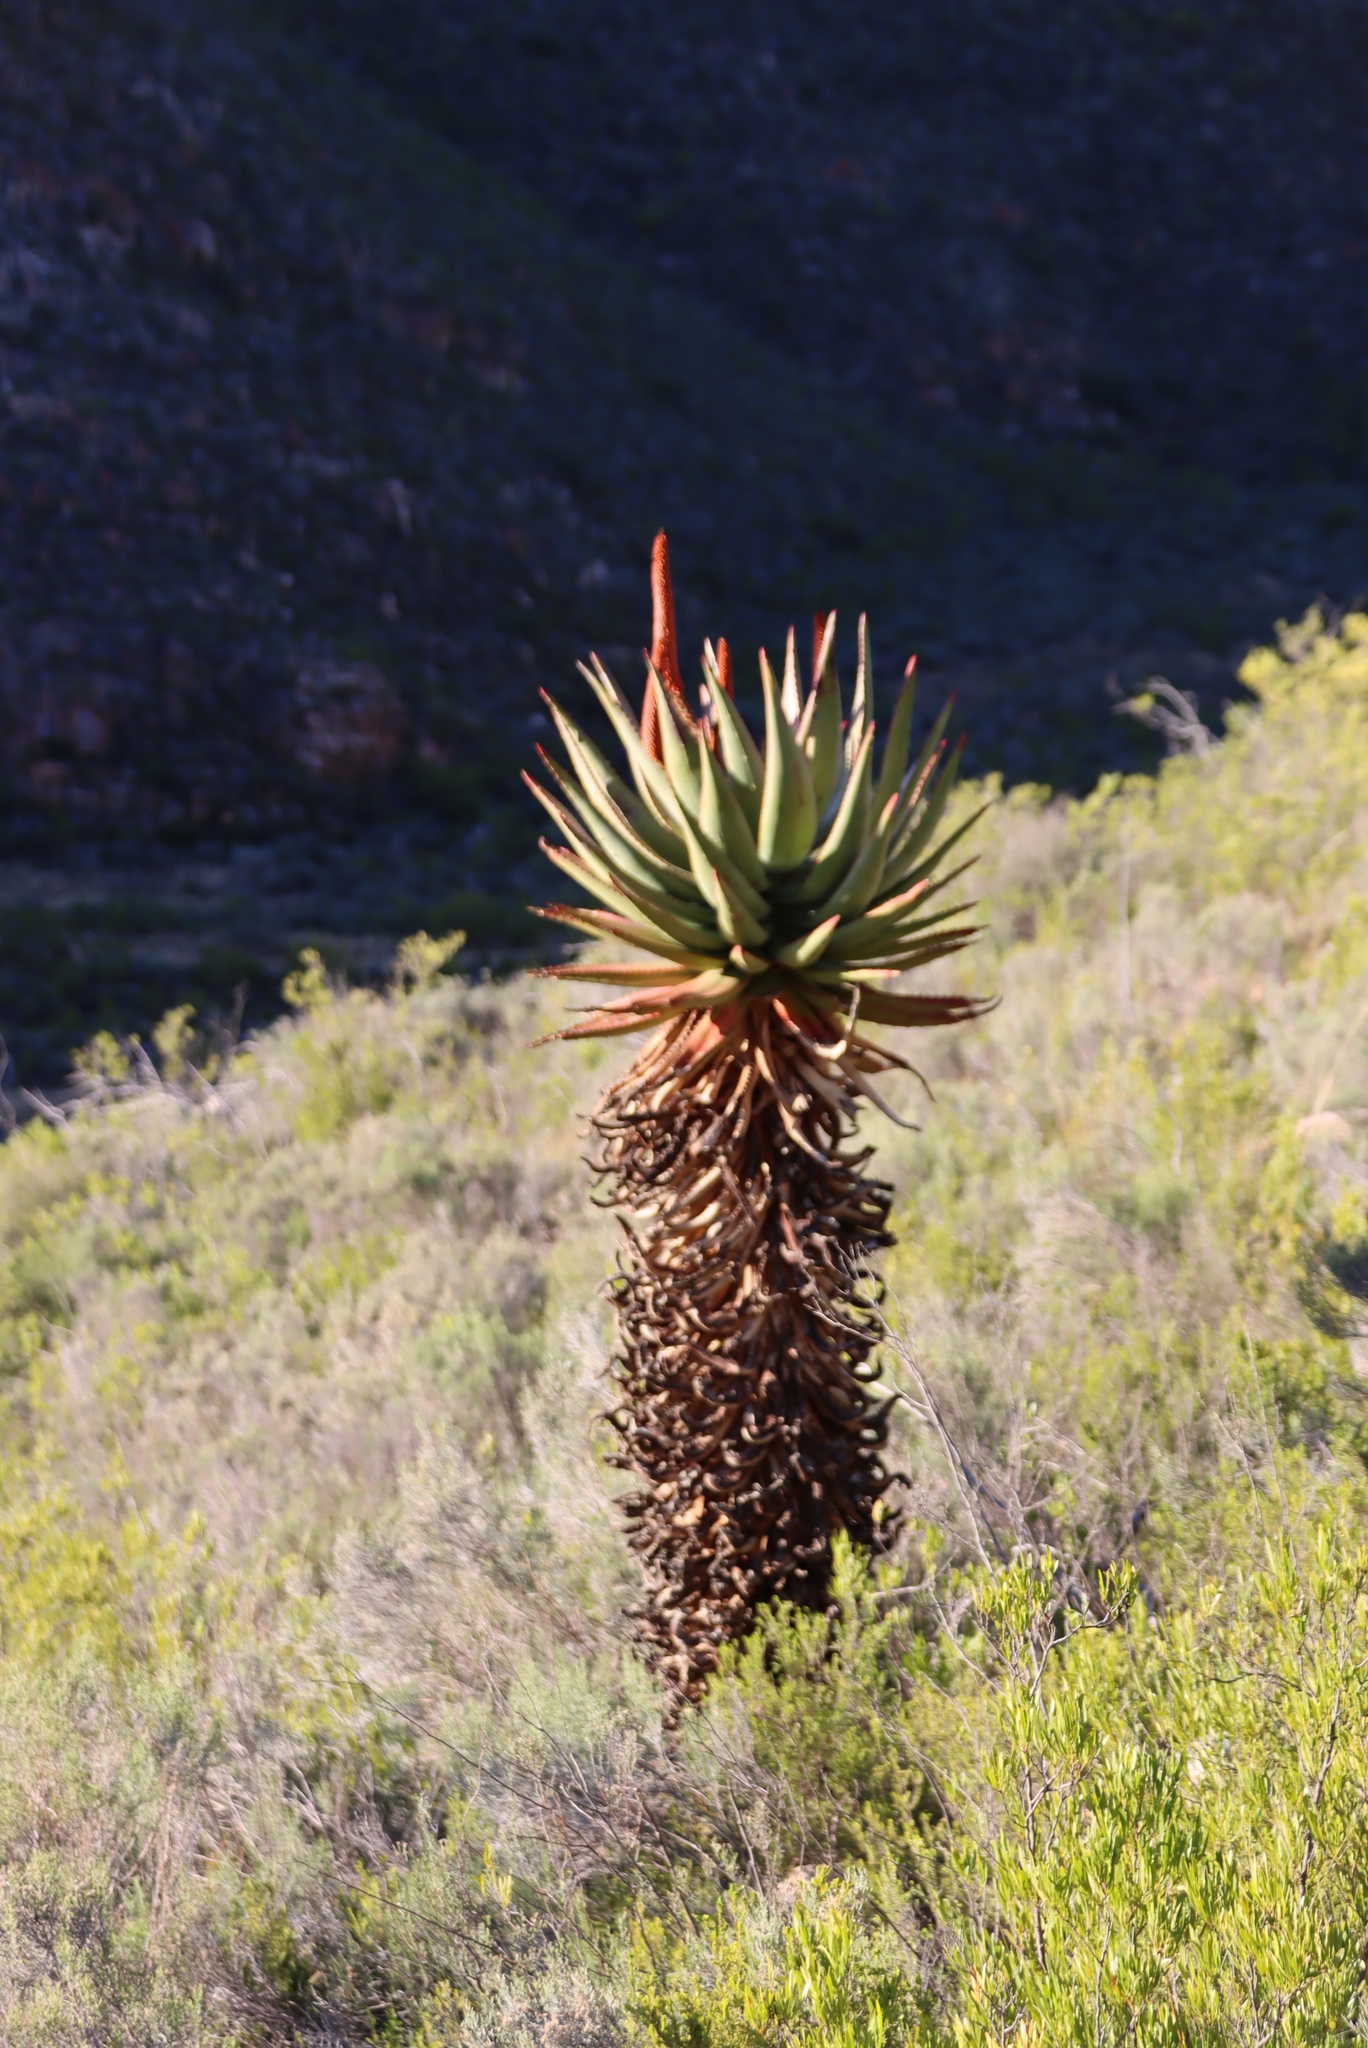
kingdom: Plantae
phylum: Tracheophyta
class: Liliopsida
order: Asparagales
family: Asphodelaceae
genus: Aloe
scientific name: Aloe ferox
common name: Bitter aloe
